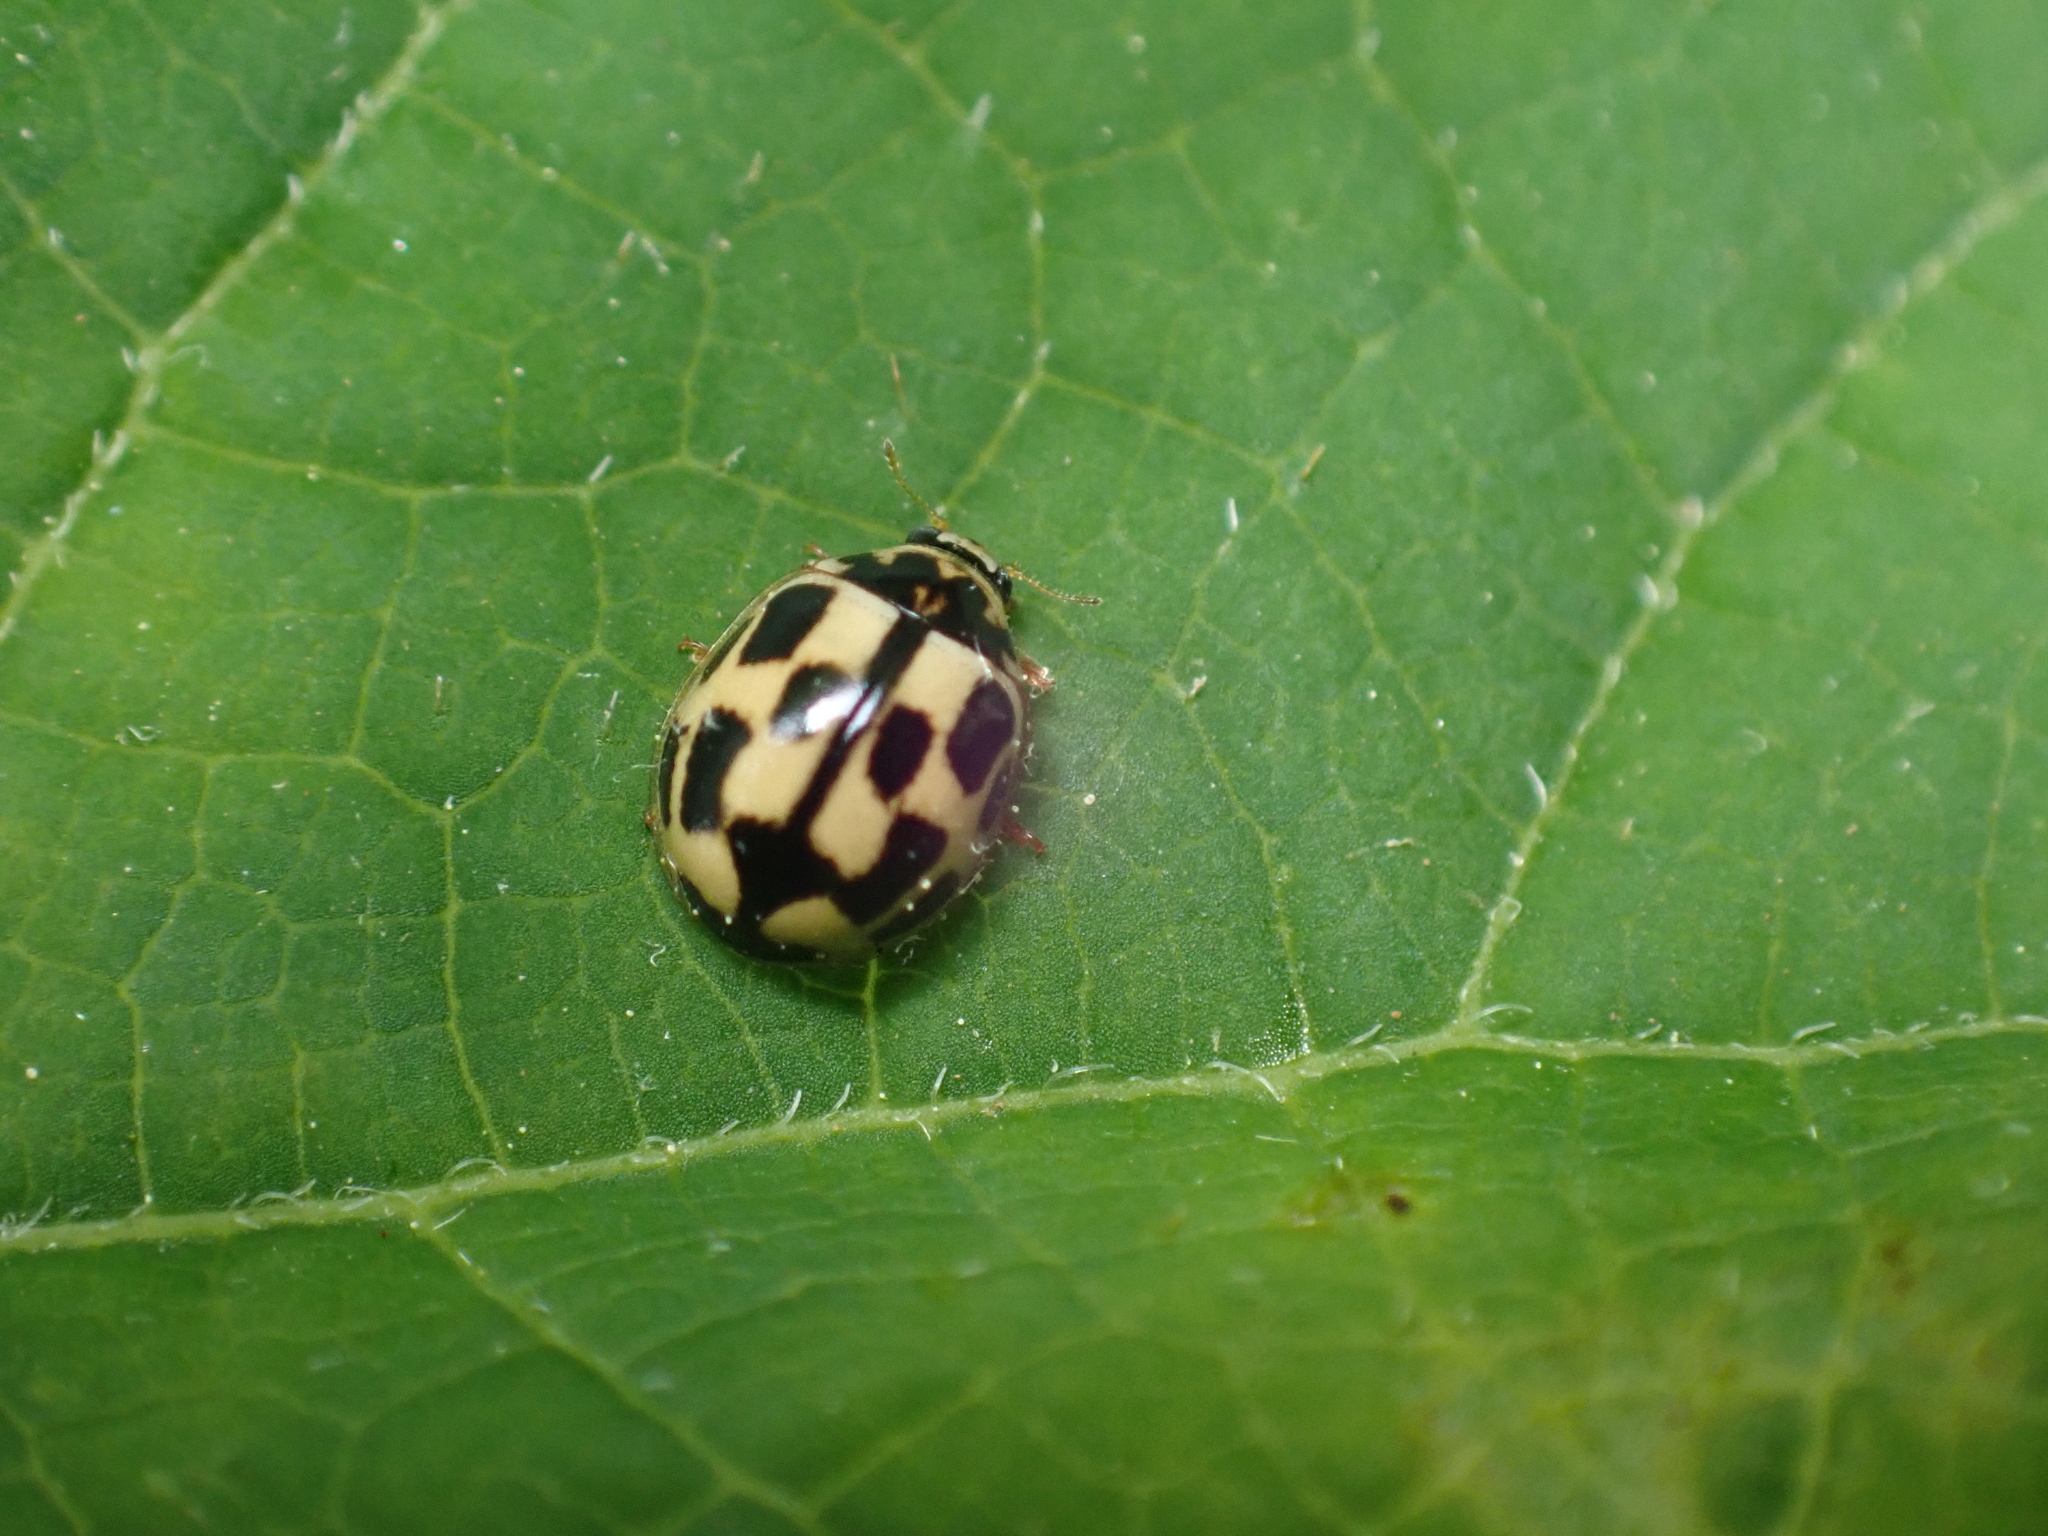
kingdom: Animalia
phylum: Arthropoda
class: Insecta
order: Coleoptera
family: Coccinellidae
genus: Propylaea
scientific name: Propylaea quatuordecimpunctata
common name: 14-spotted ladybird beetle
